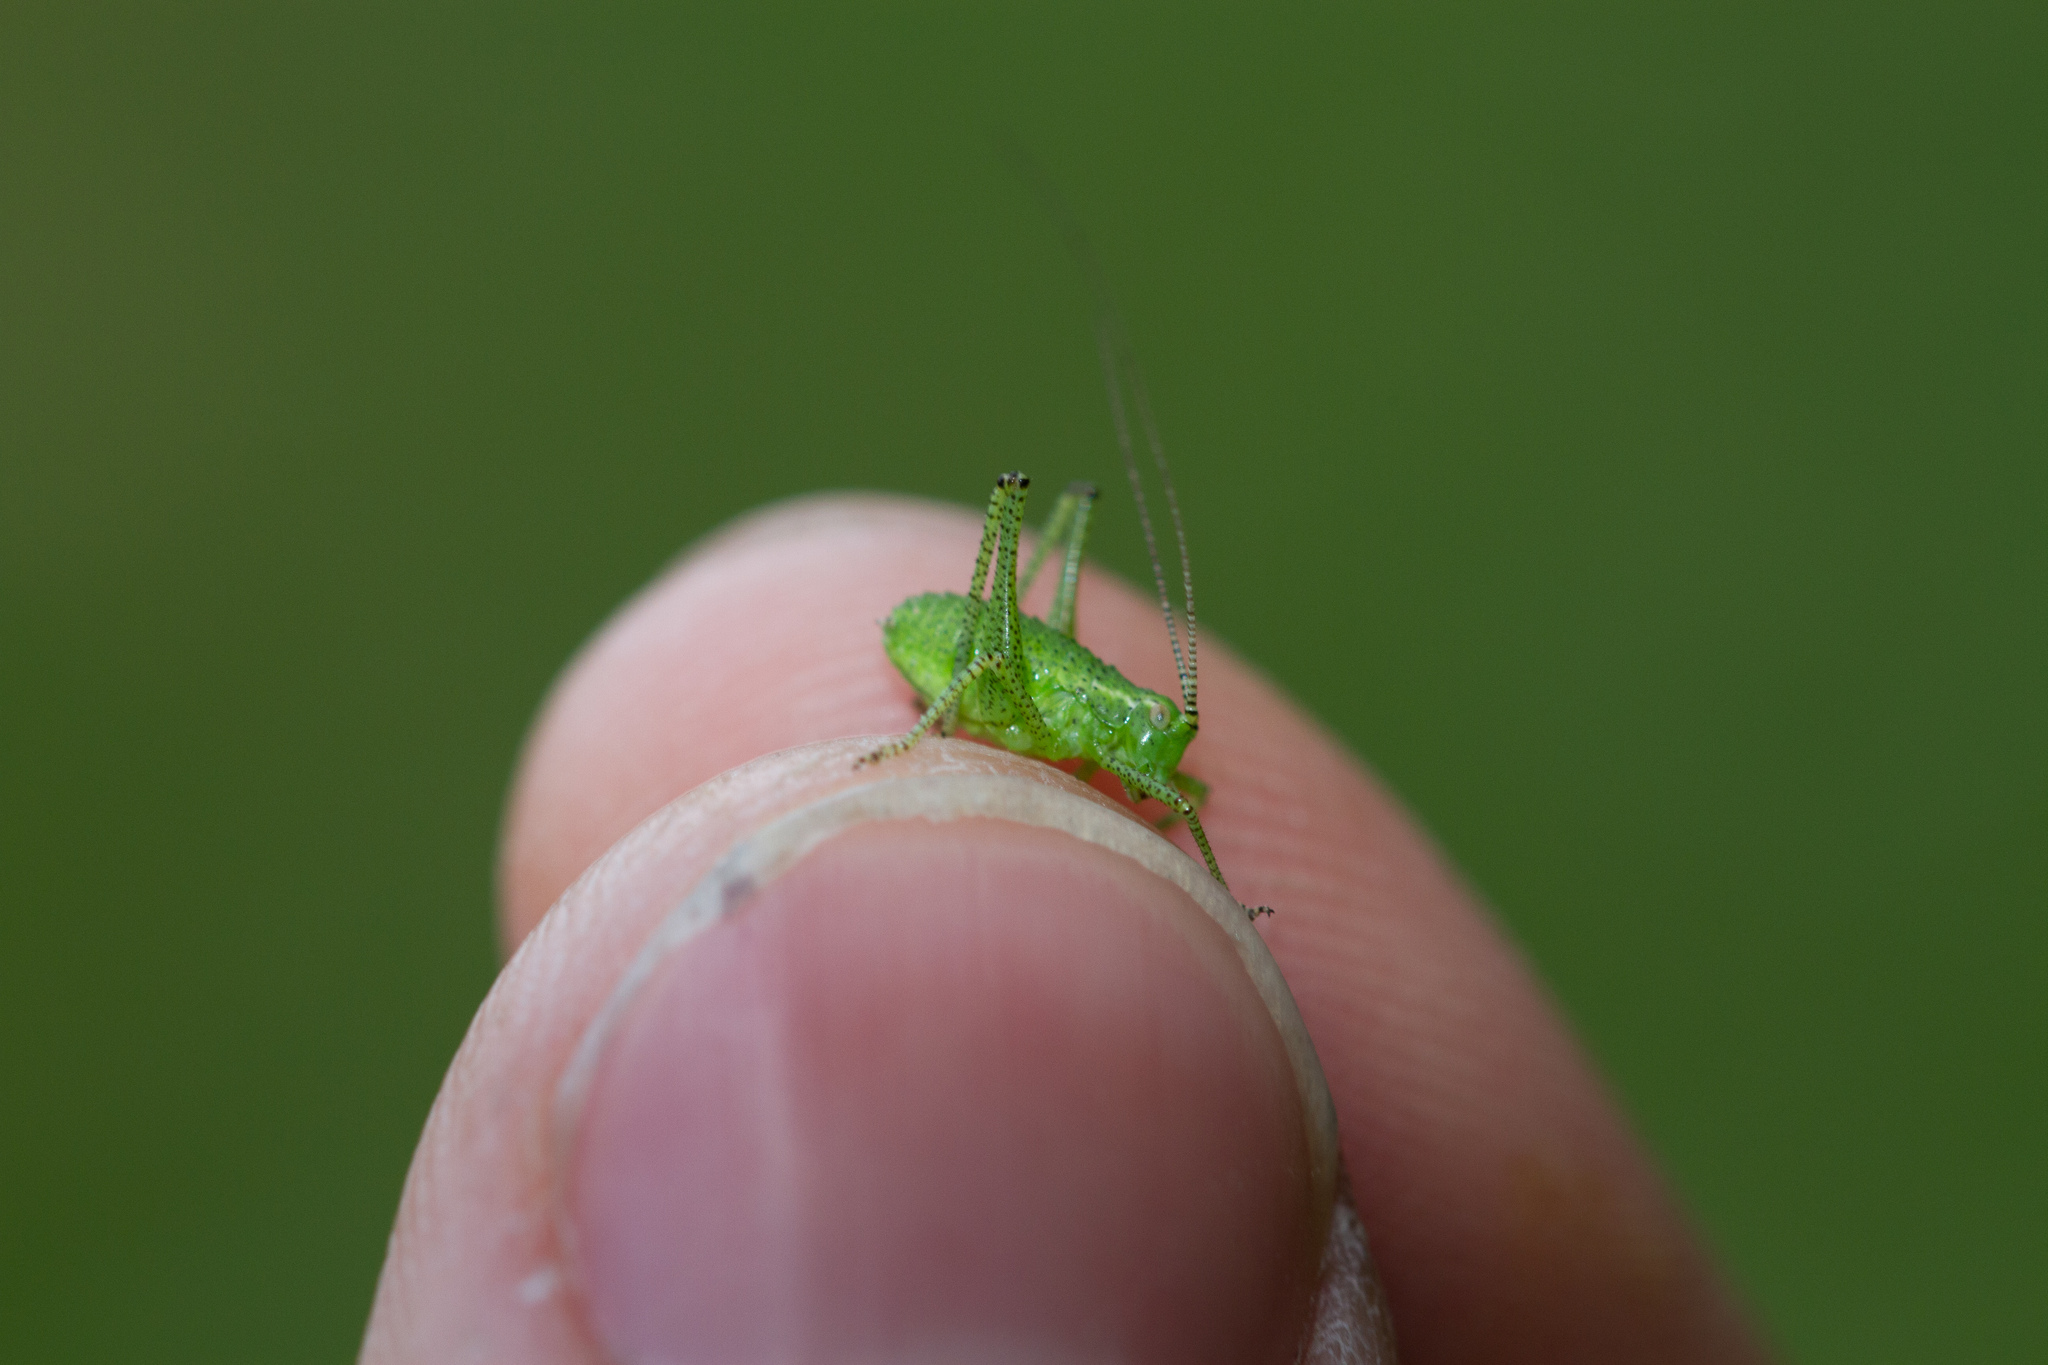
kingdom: Animalia
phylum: Arthropoda
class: Insecta
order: Orthoptera
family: Tettigoniidae
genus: Leptophyes
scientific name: Leptophyes punctatissima
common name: Speckled bush-cricket
